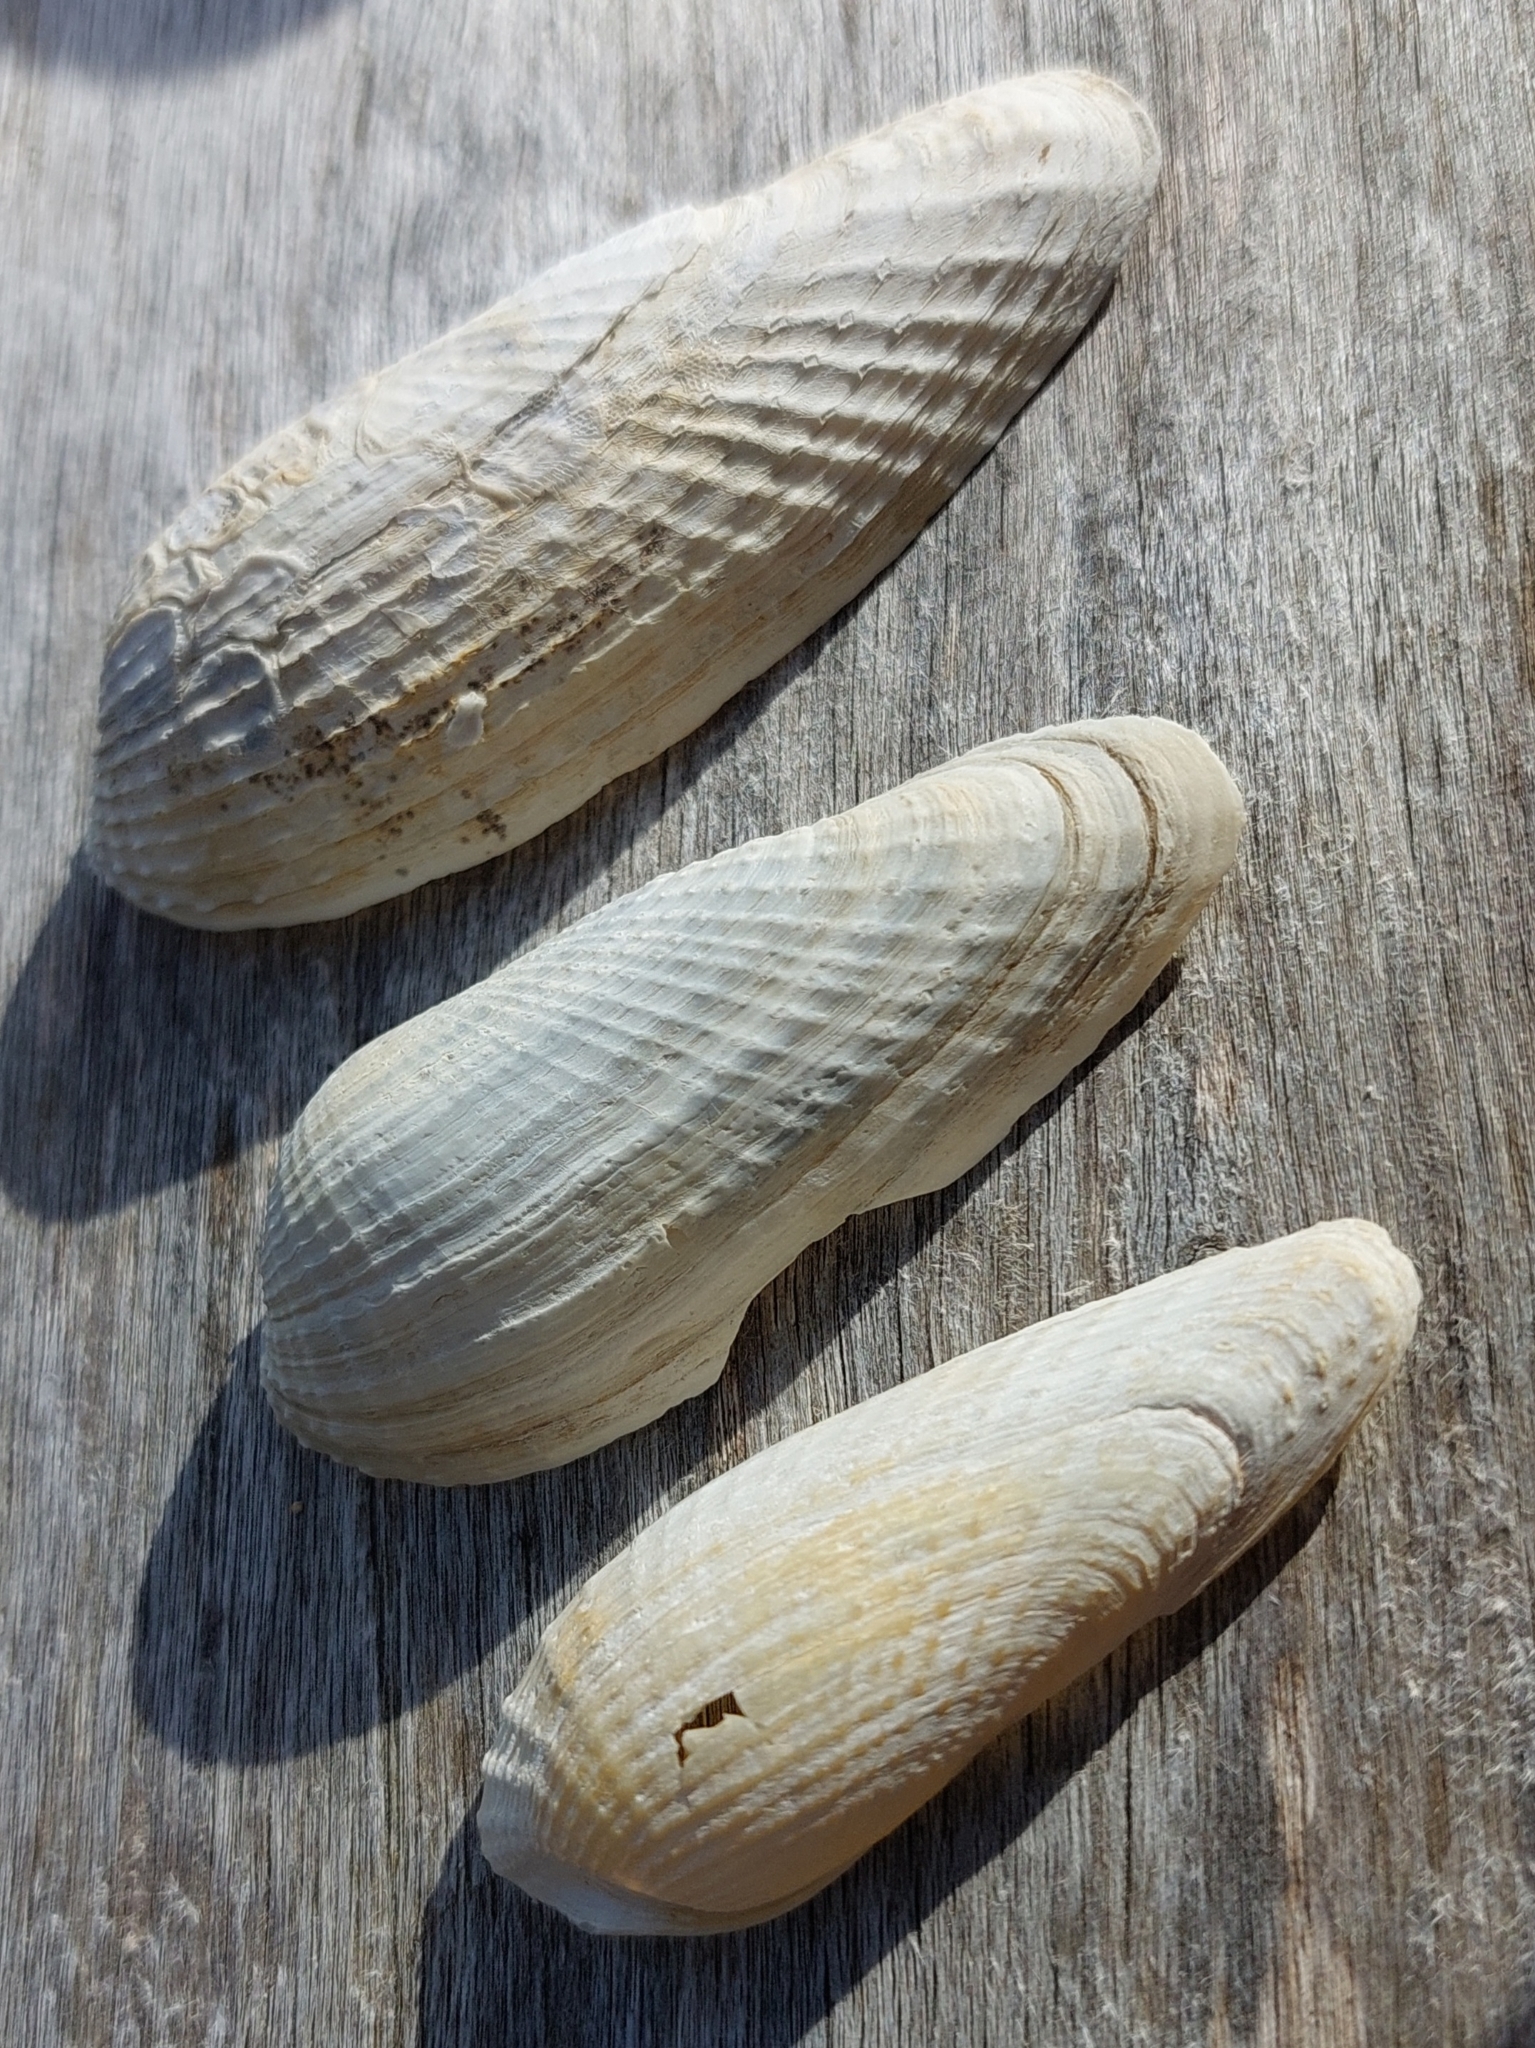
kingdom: Animalia
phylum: Mollusca
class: Bivalvia
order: Myida
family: Pholadidae
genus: Barnea
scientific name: Barnea candida
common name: White piddock
